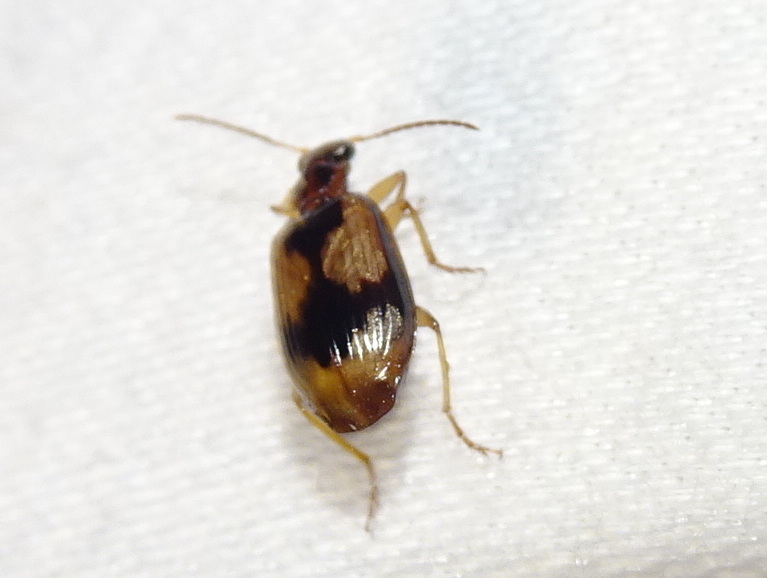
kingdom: Animalia
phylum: Arthropoda
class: Insecta
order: Coleoptera
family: Carabidae
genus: Lebia
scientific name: Lebia fuscata
